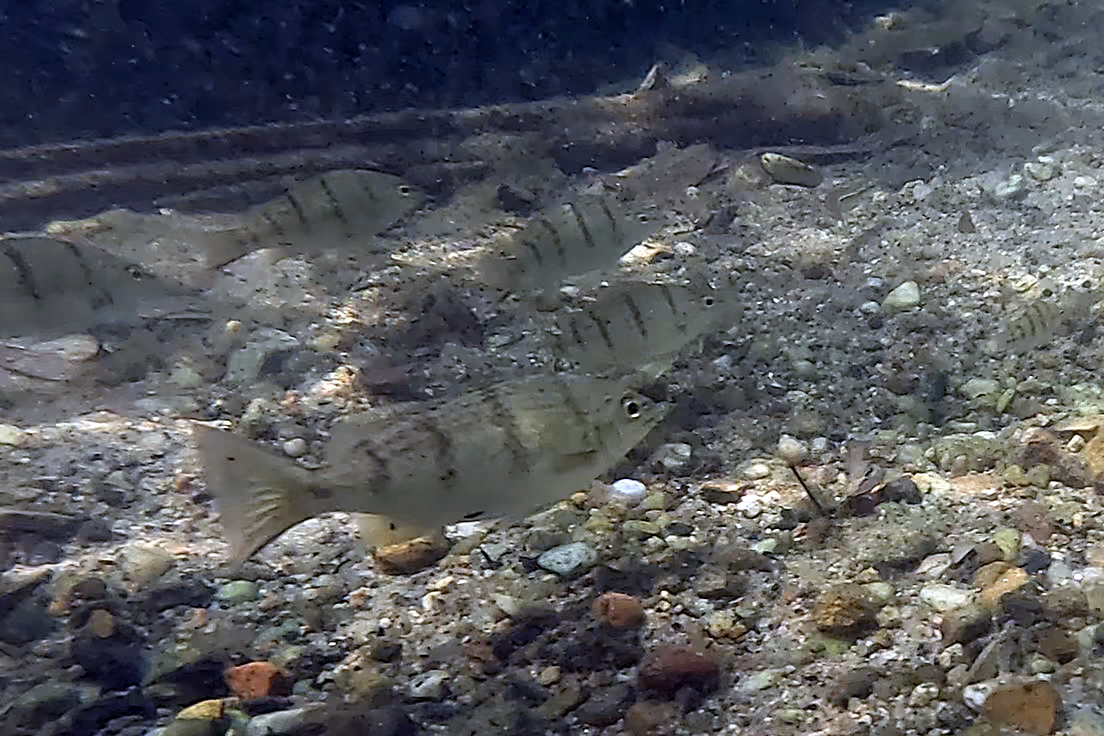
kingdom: Animalia
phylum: Chordata
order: Perciformes
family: Terapontidae
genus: Amniataba
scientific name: Amniataba percoides
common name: Banded grunter
